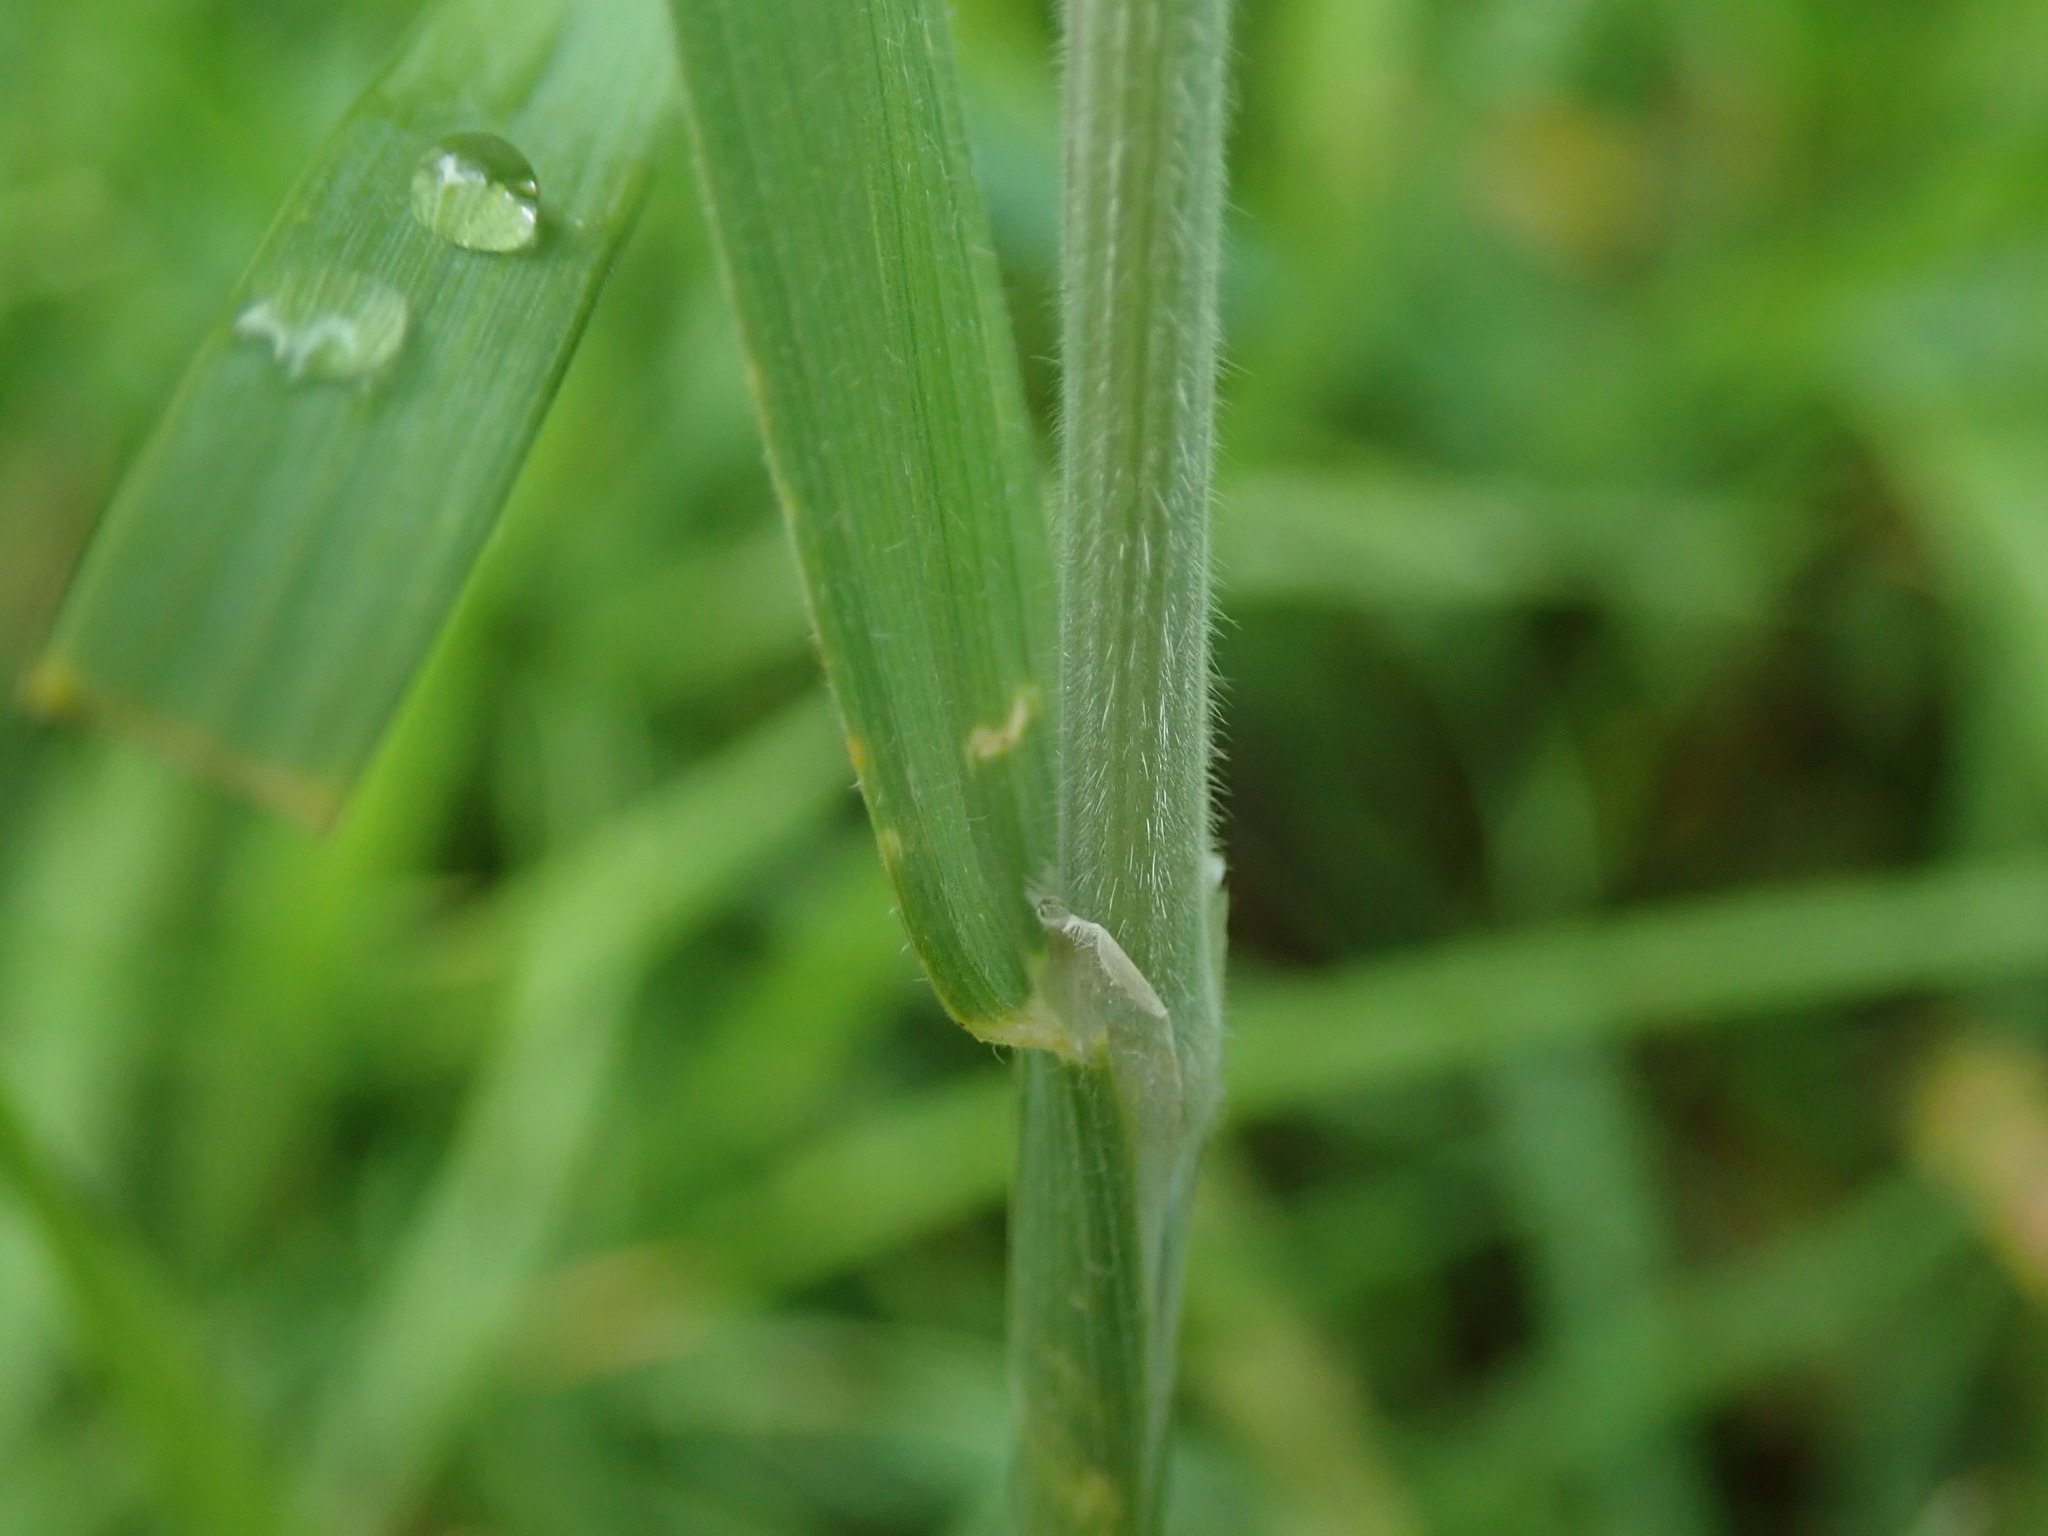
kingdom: Plantae
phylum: Tracheophyta
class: Liliopsida
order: Poales
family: Poaceae
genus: Holcus
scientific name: Holcus lanatus
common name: Yorkshire-fog
